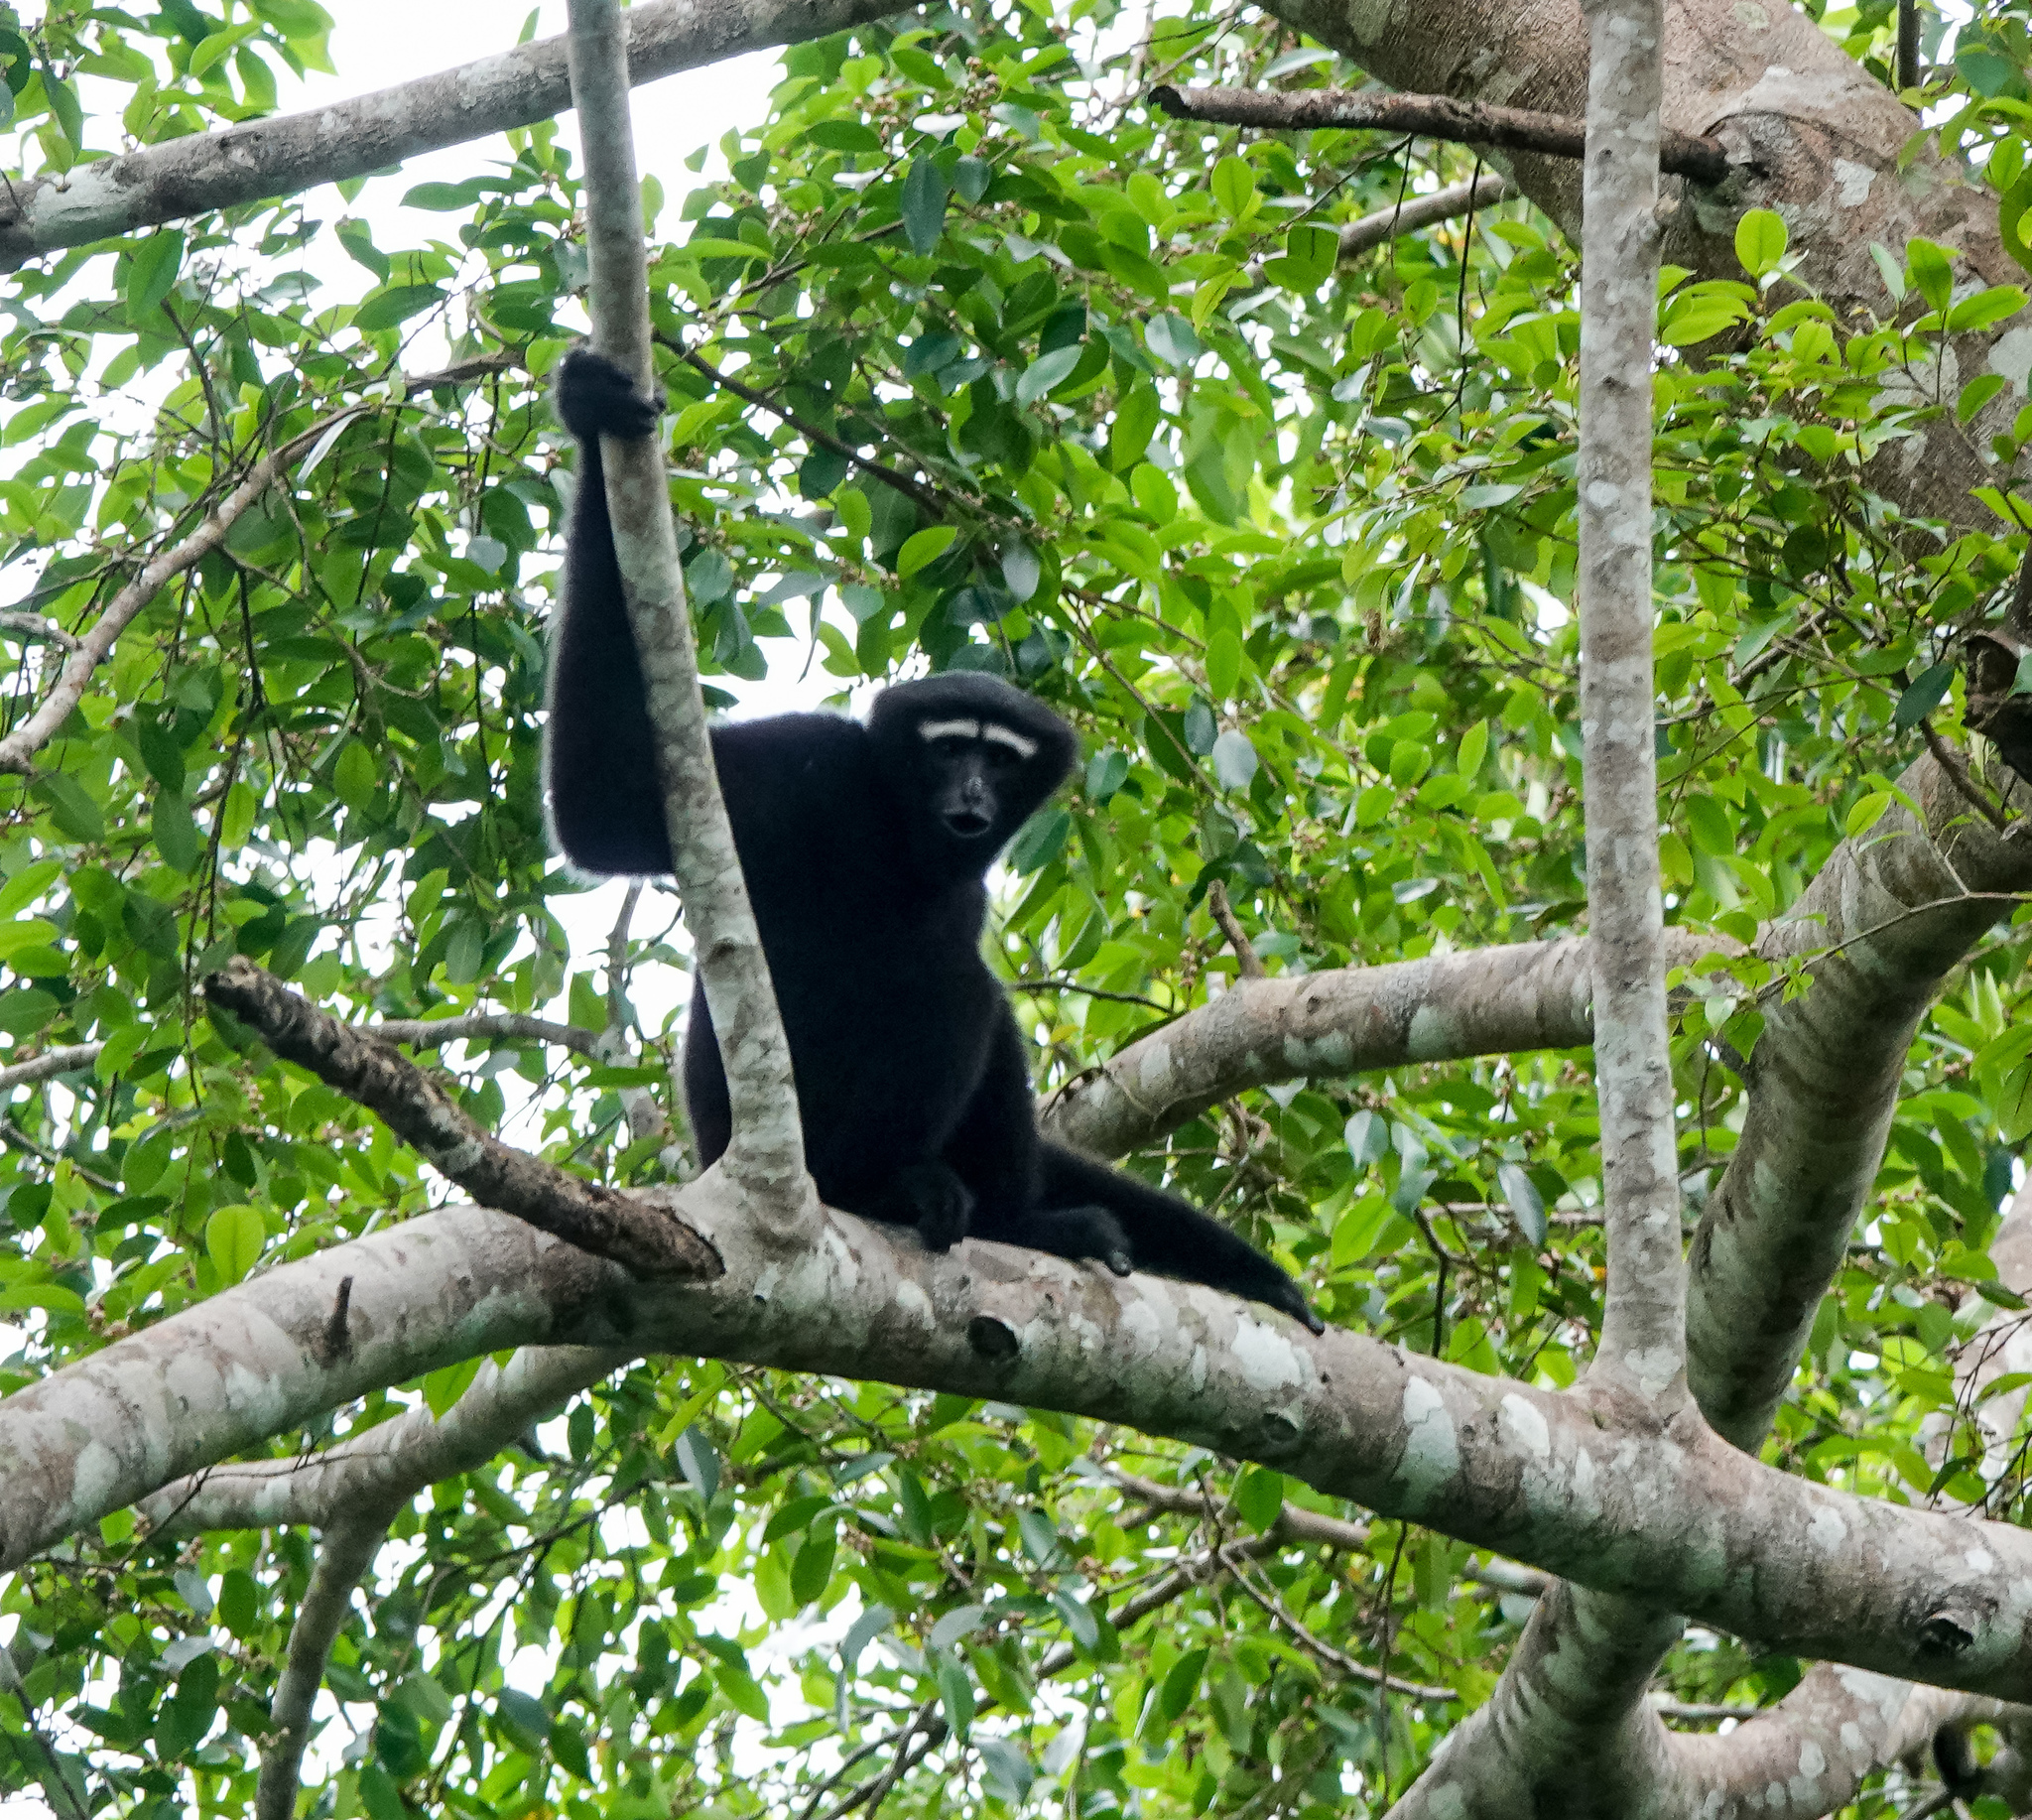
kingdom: Animalia
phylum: Chordata
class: Mammalia
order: Primates
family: Hylobatidae
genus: Hoolock
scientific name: Hoolock hoolock
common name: Western hoolock gibbon
